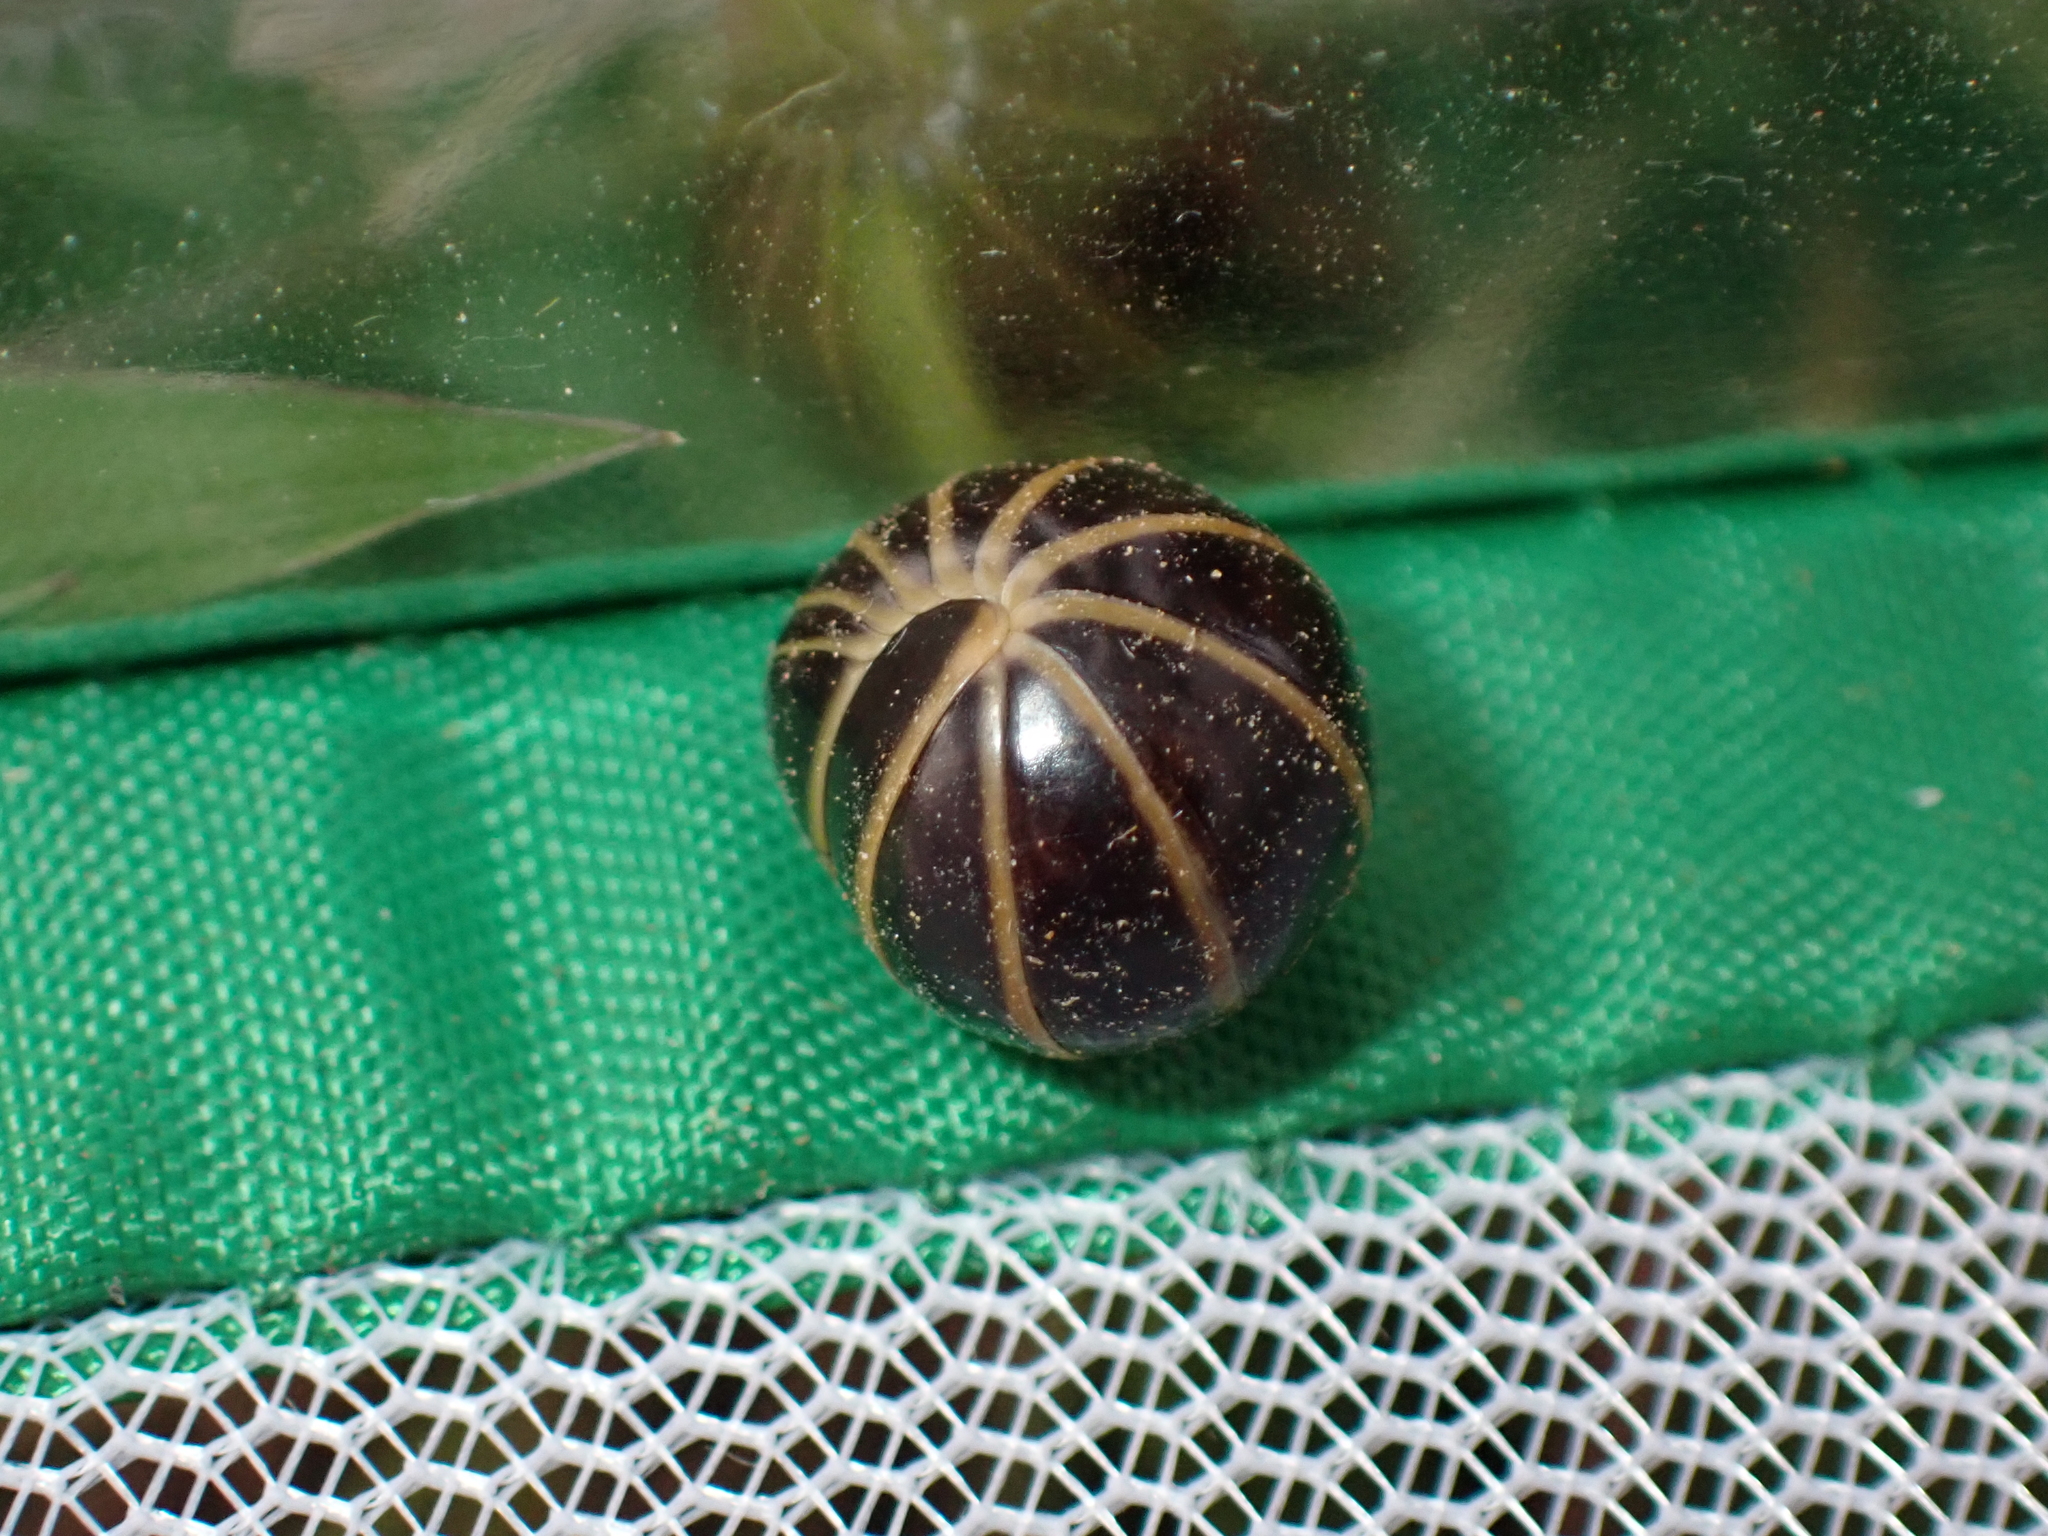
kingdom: Animalia
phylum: Arthropoda
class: Diplopoda
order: Glomerida
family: Glomeridae
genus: Glomeris
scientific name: Glomeris marginata
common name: Bordered pill millipede
